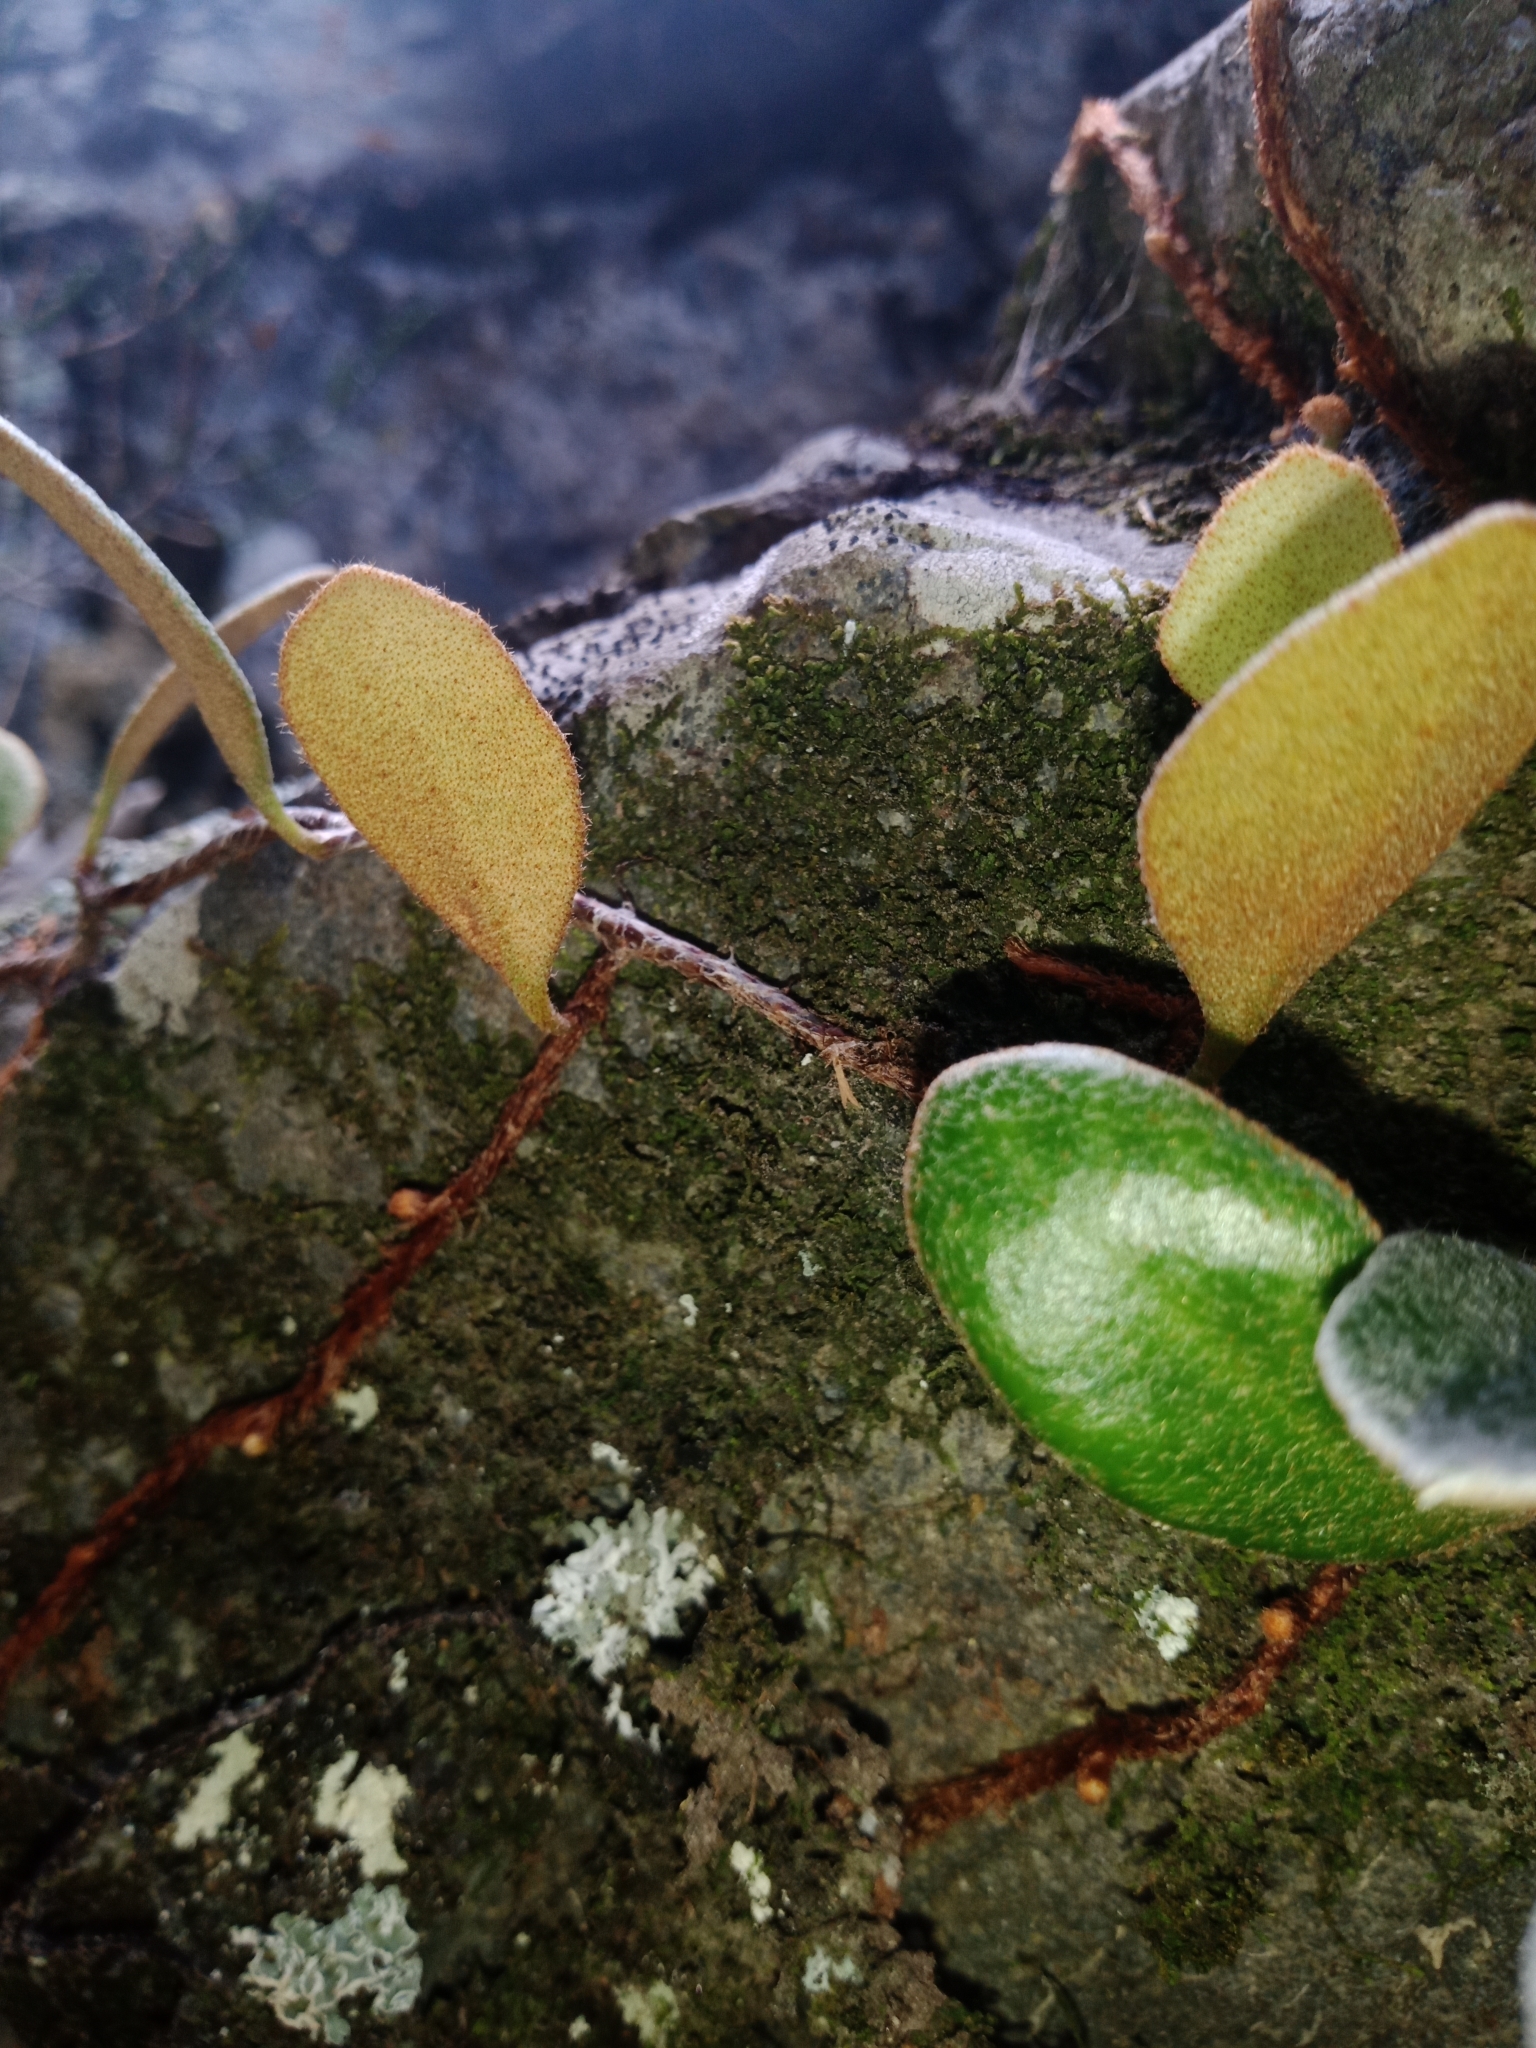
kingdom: Plantae
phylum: Tracheophyta
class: Polypodiopsida
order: Polypodiales
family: Polypodiaceae
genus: Pyrrosia
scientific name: Pyrrosia eleagnifolia
